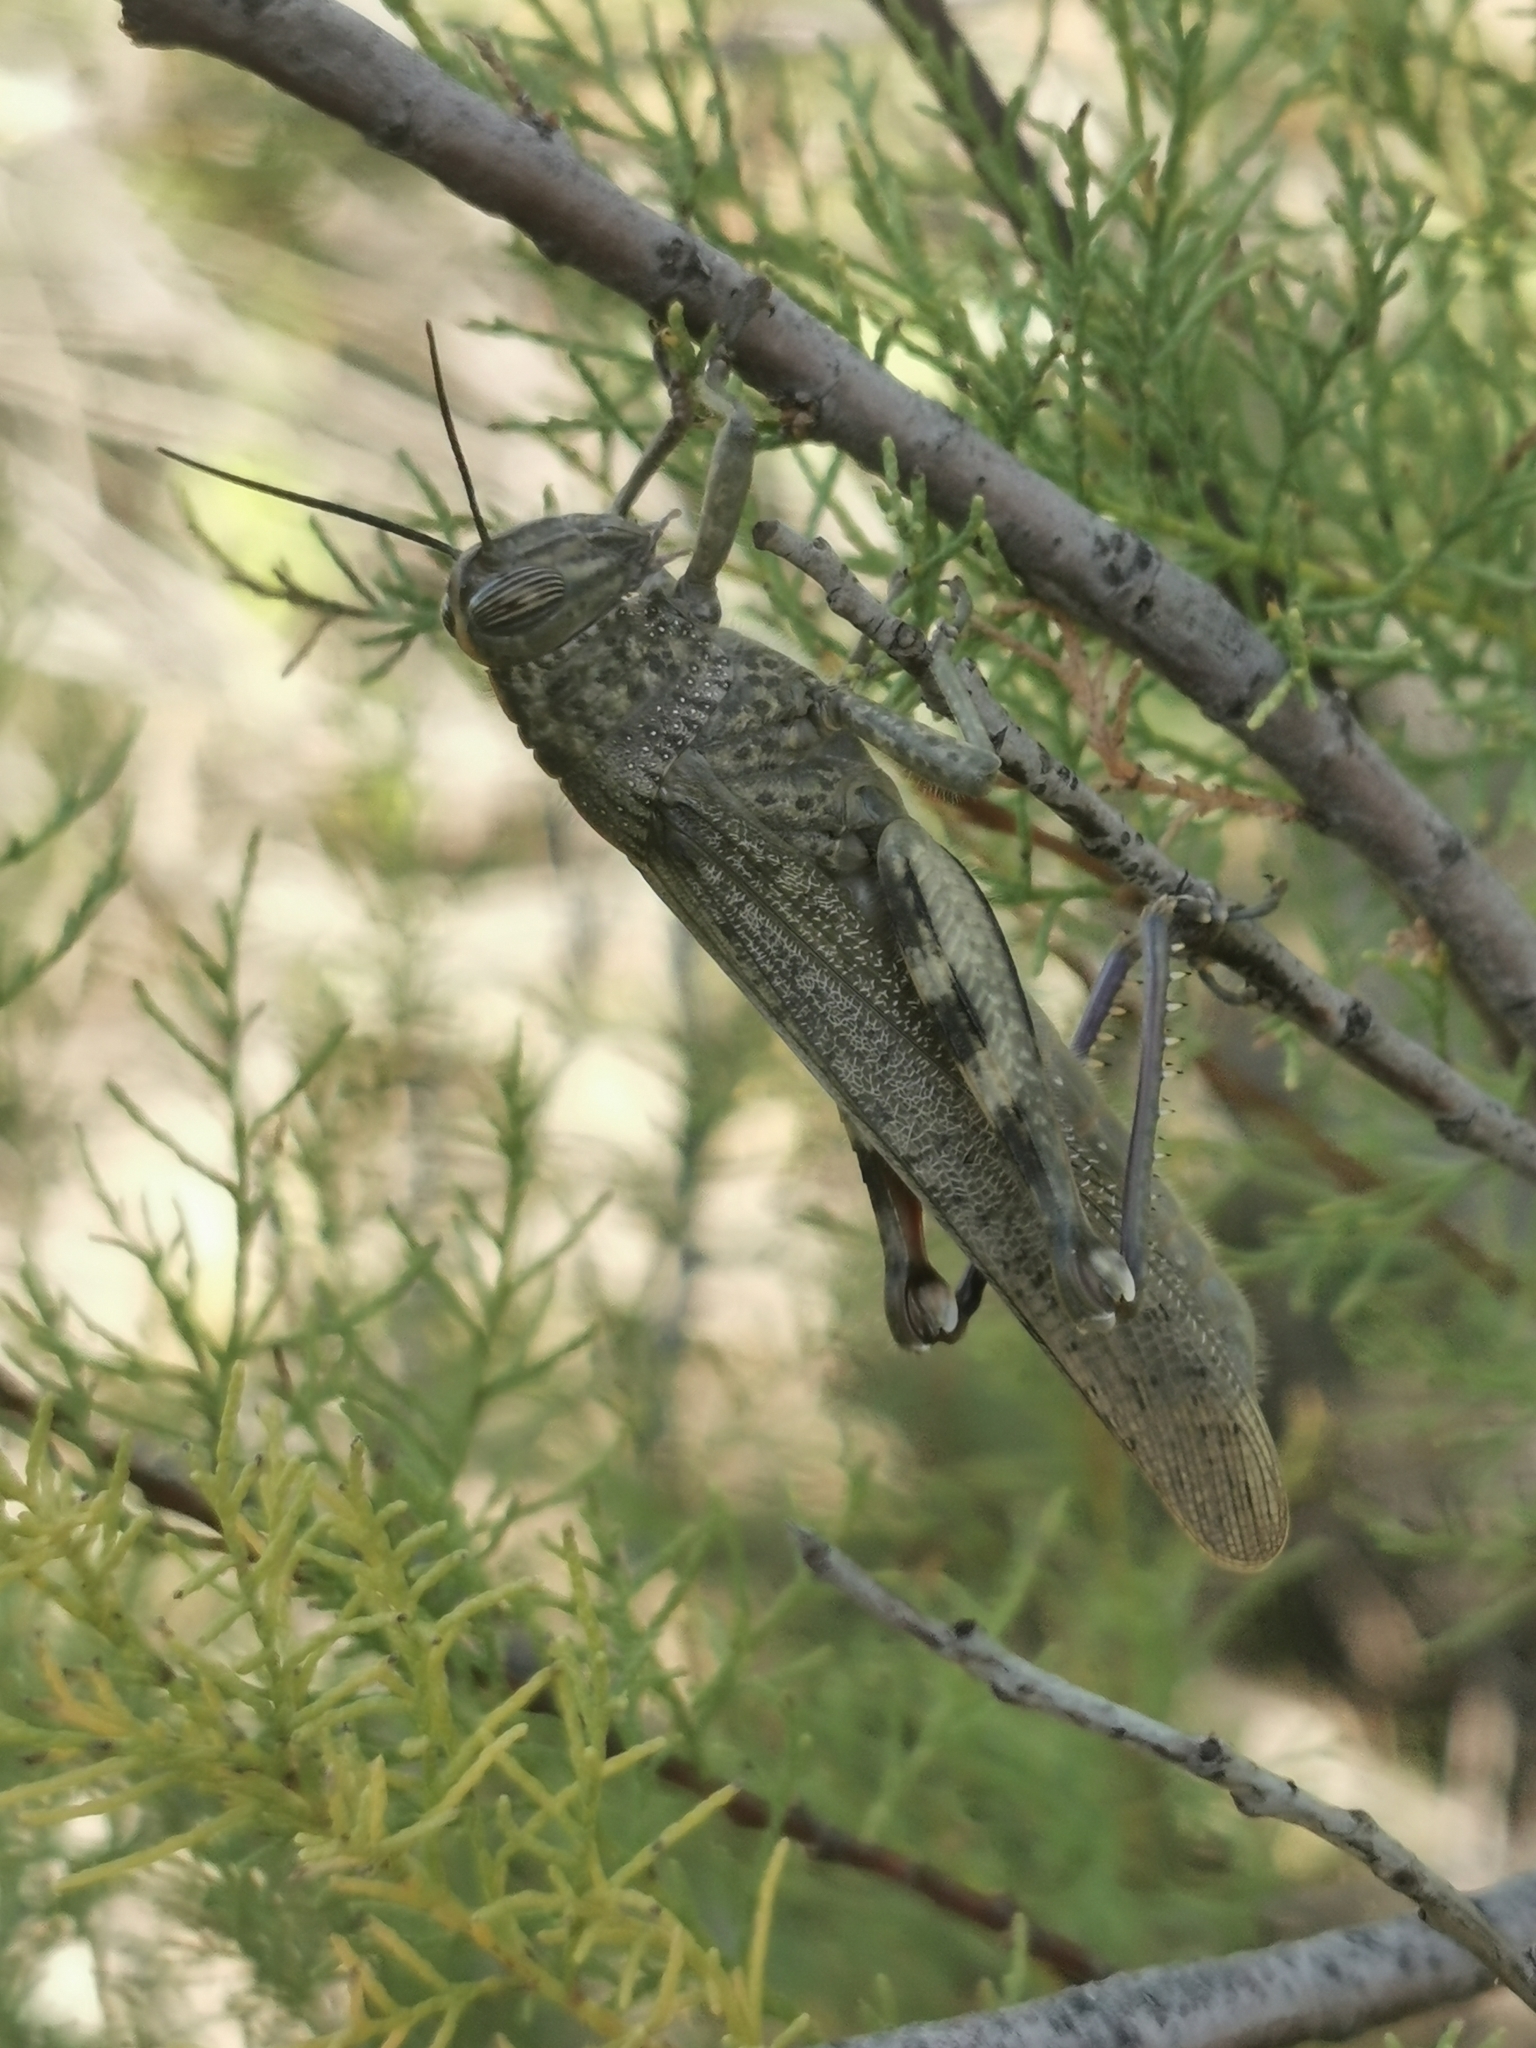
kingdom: Animalia
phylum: Arthropoda
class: Insecta
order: Orthoptera
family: Acrididae
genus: Anacridium
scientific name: Anacridium aegyptium
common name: Egyptian grasshopper
